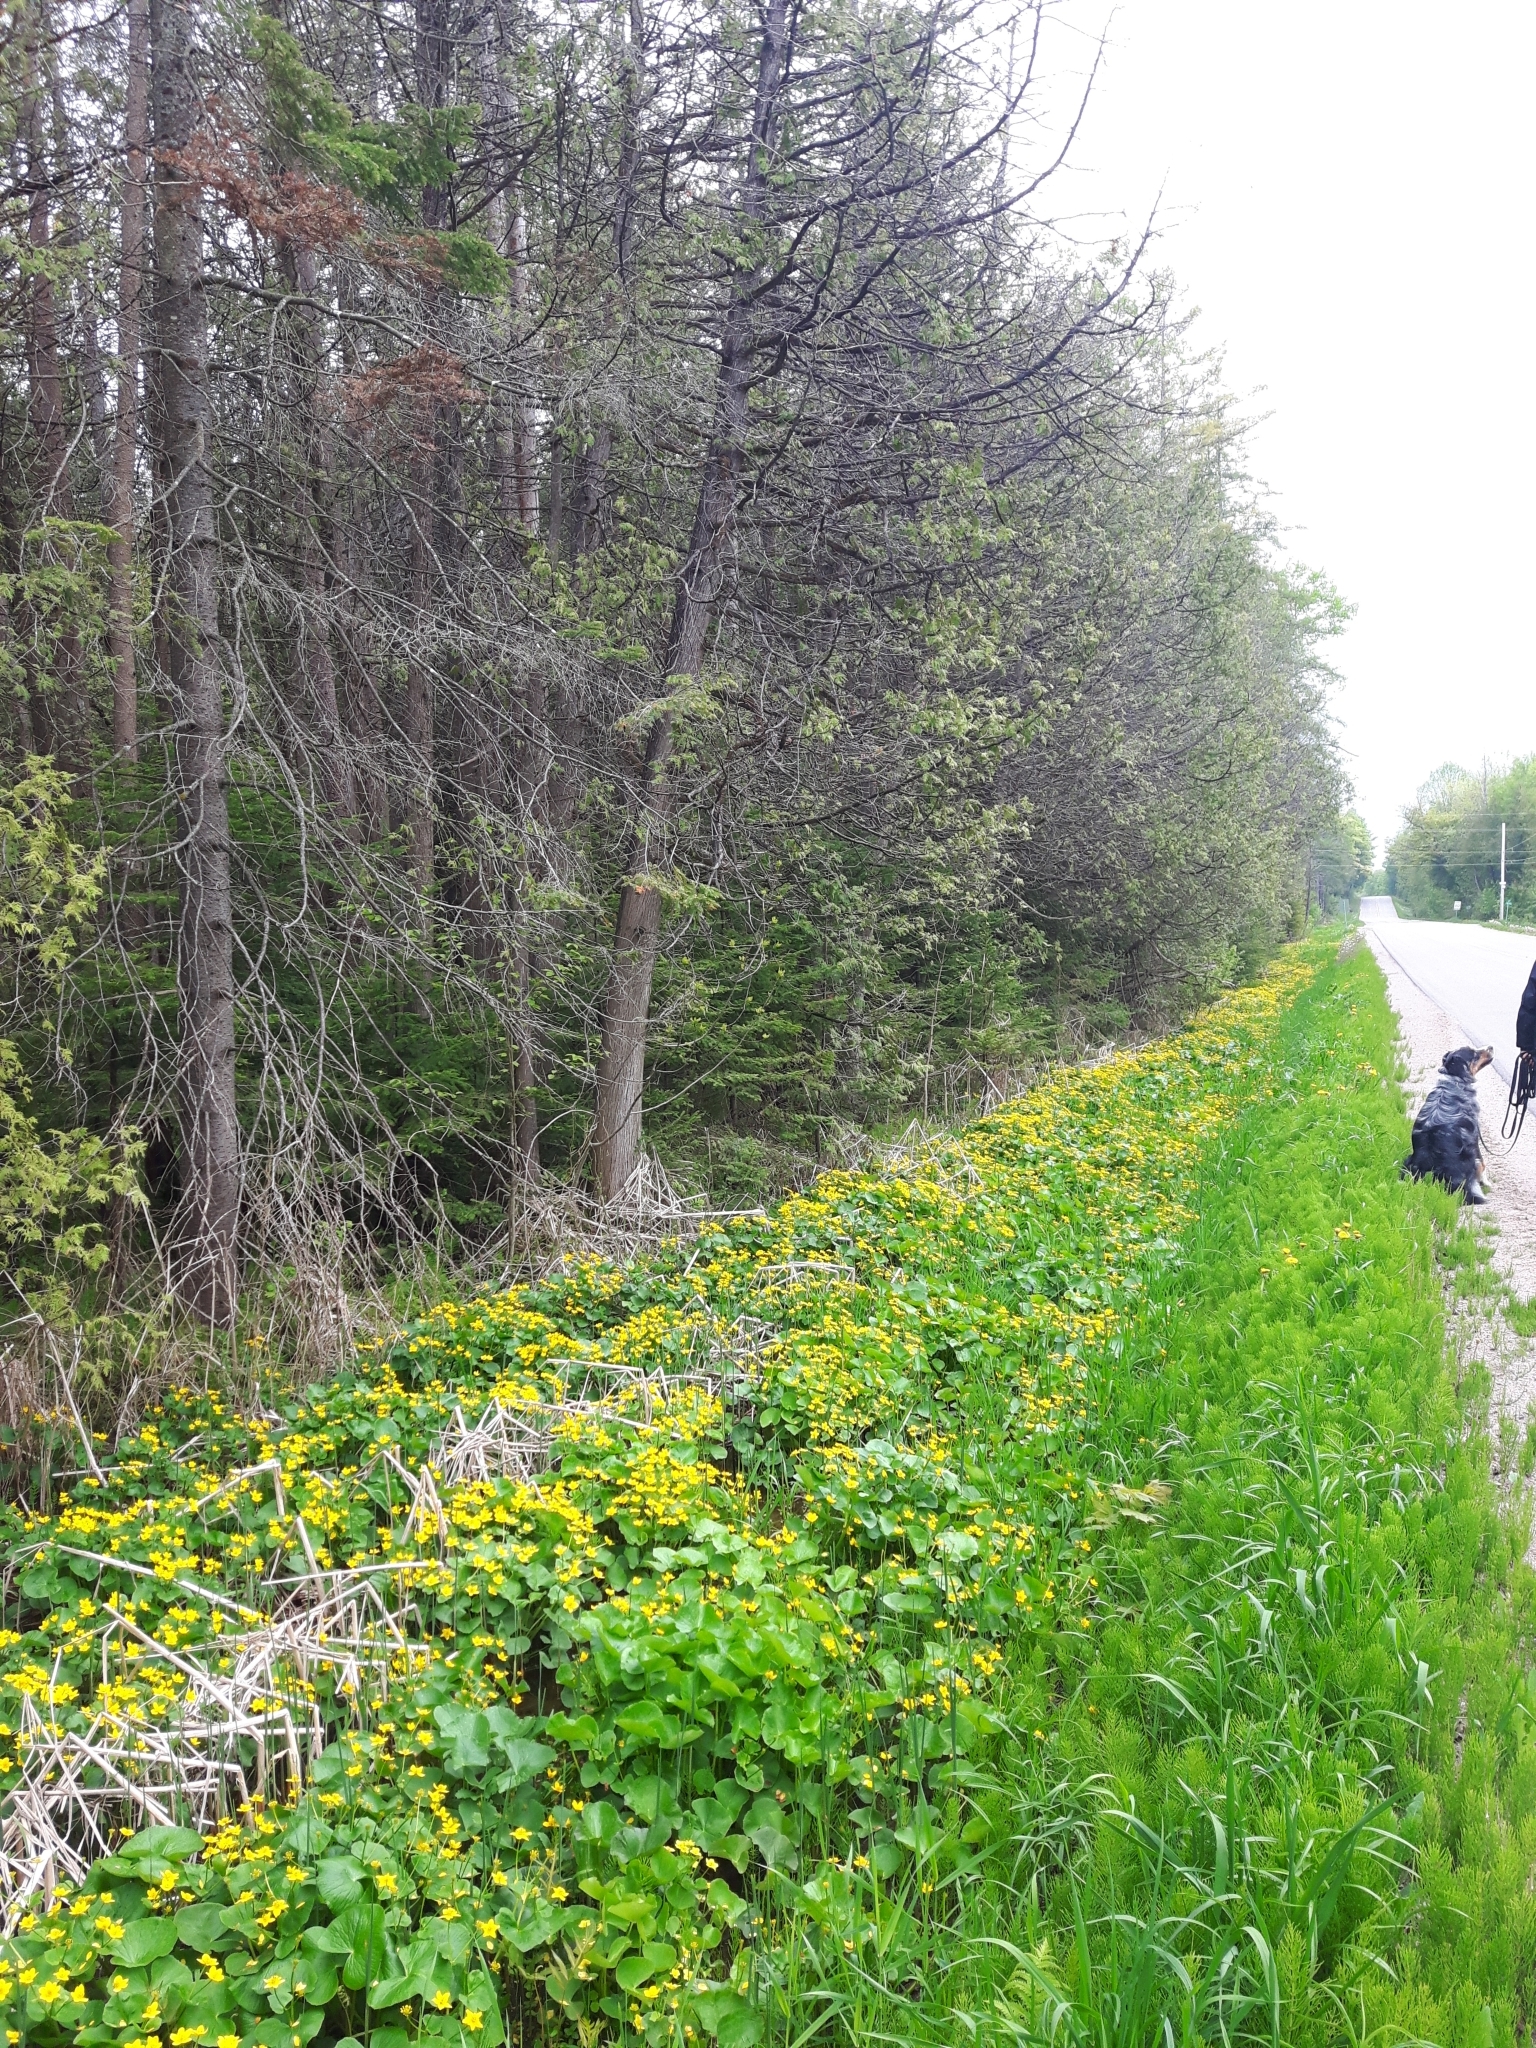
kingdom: Plantae
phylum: Tracheophyta
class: Magnoliopsida
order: Ranunculales
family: Ranunculaceae
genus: Caltha
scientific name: Caltha palustris
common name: Marsh marigold
